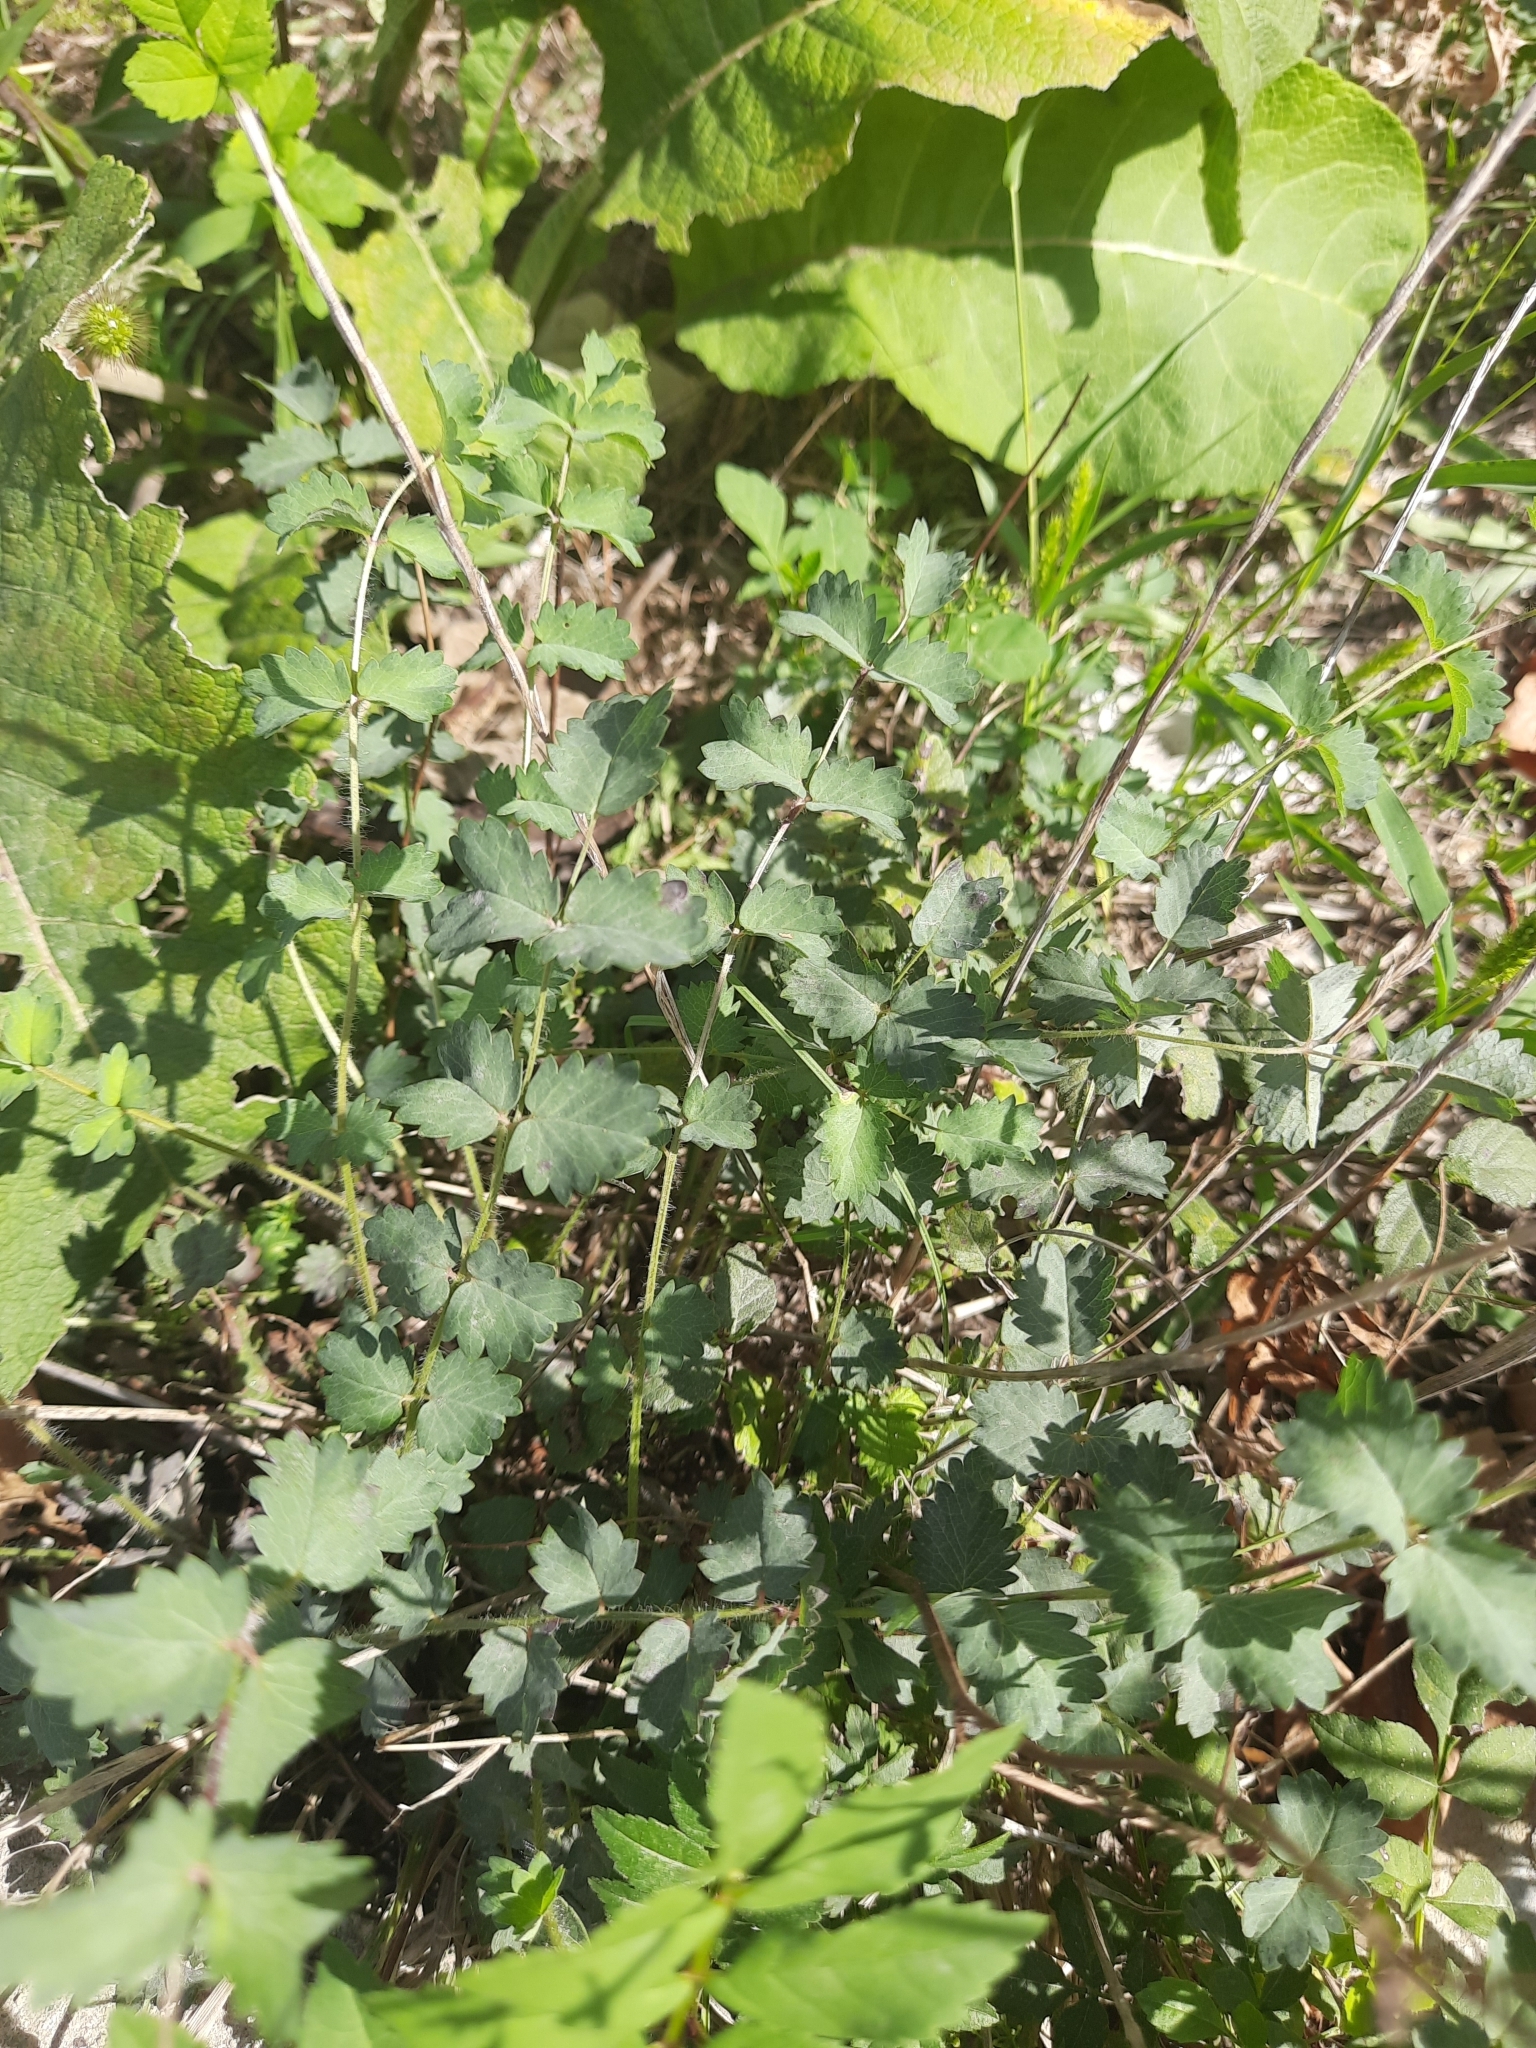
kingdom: Plantae
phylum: Tracheophyta
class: Magnoliopsida
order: Rosales
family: Rosaceae
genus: Poterium
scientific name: Poterium sanguisorba
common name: Salad burnet
